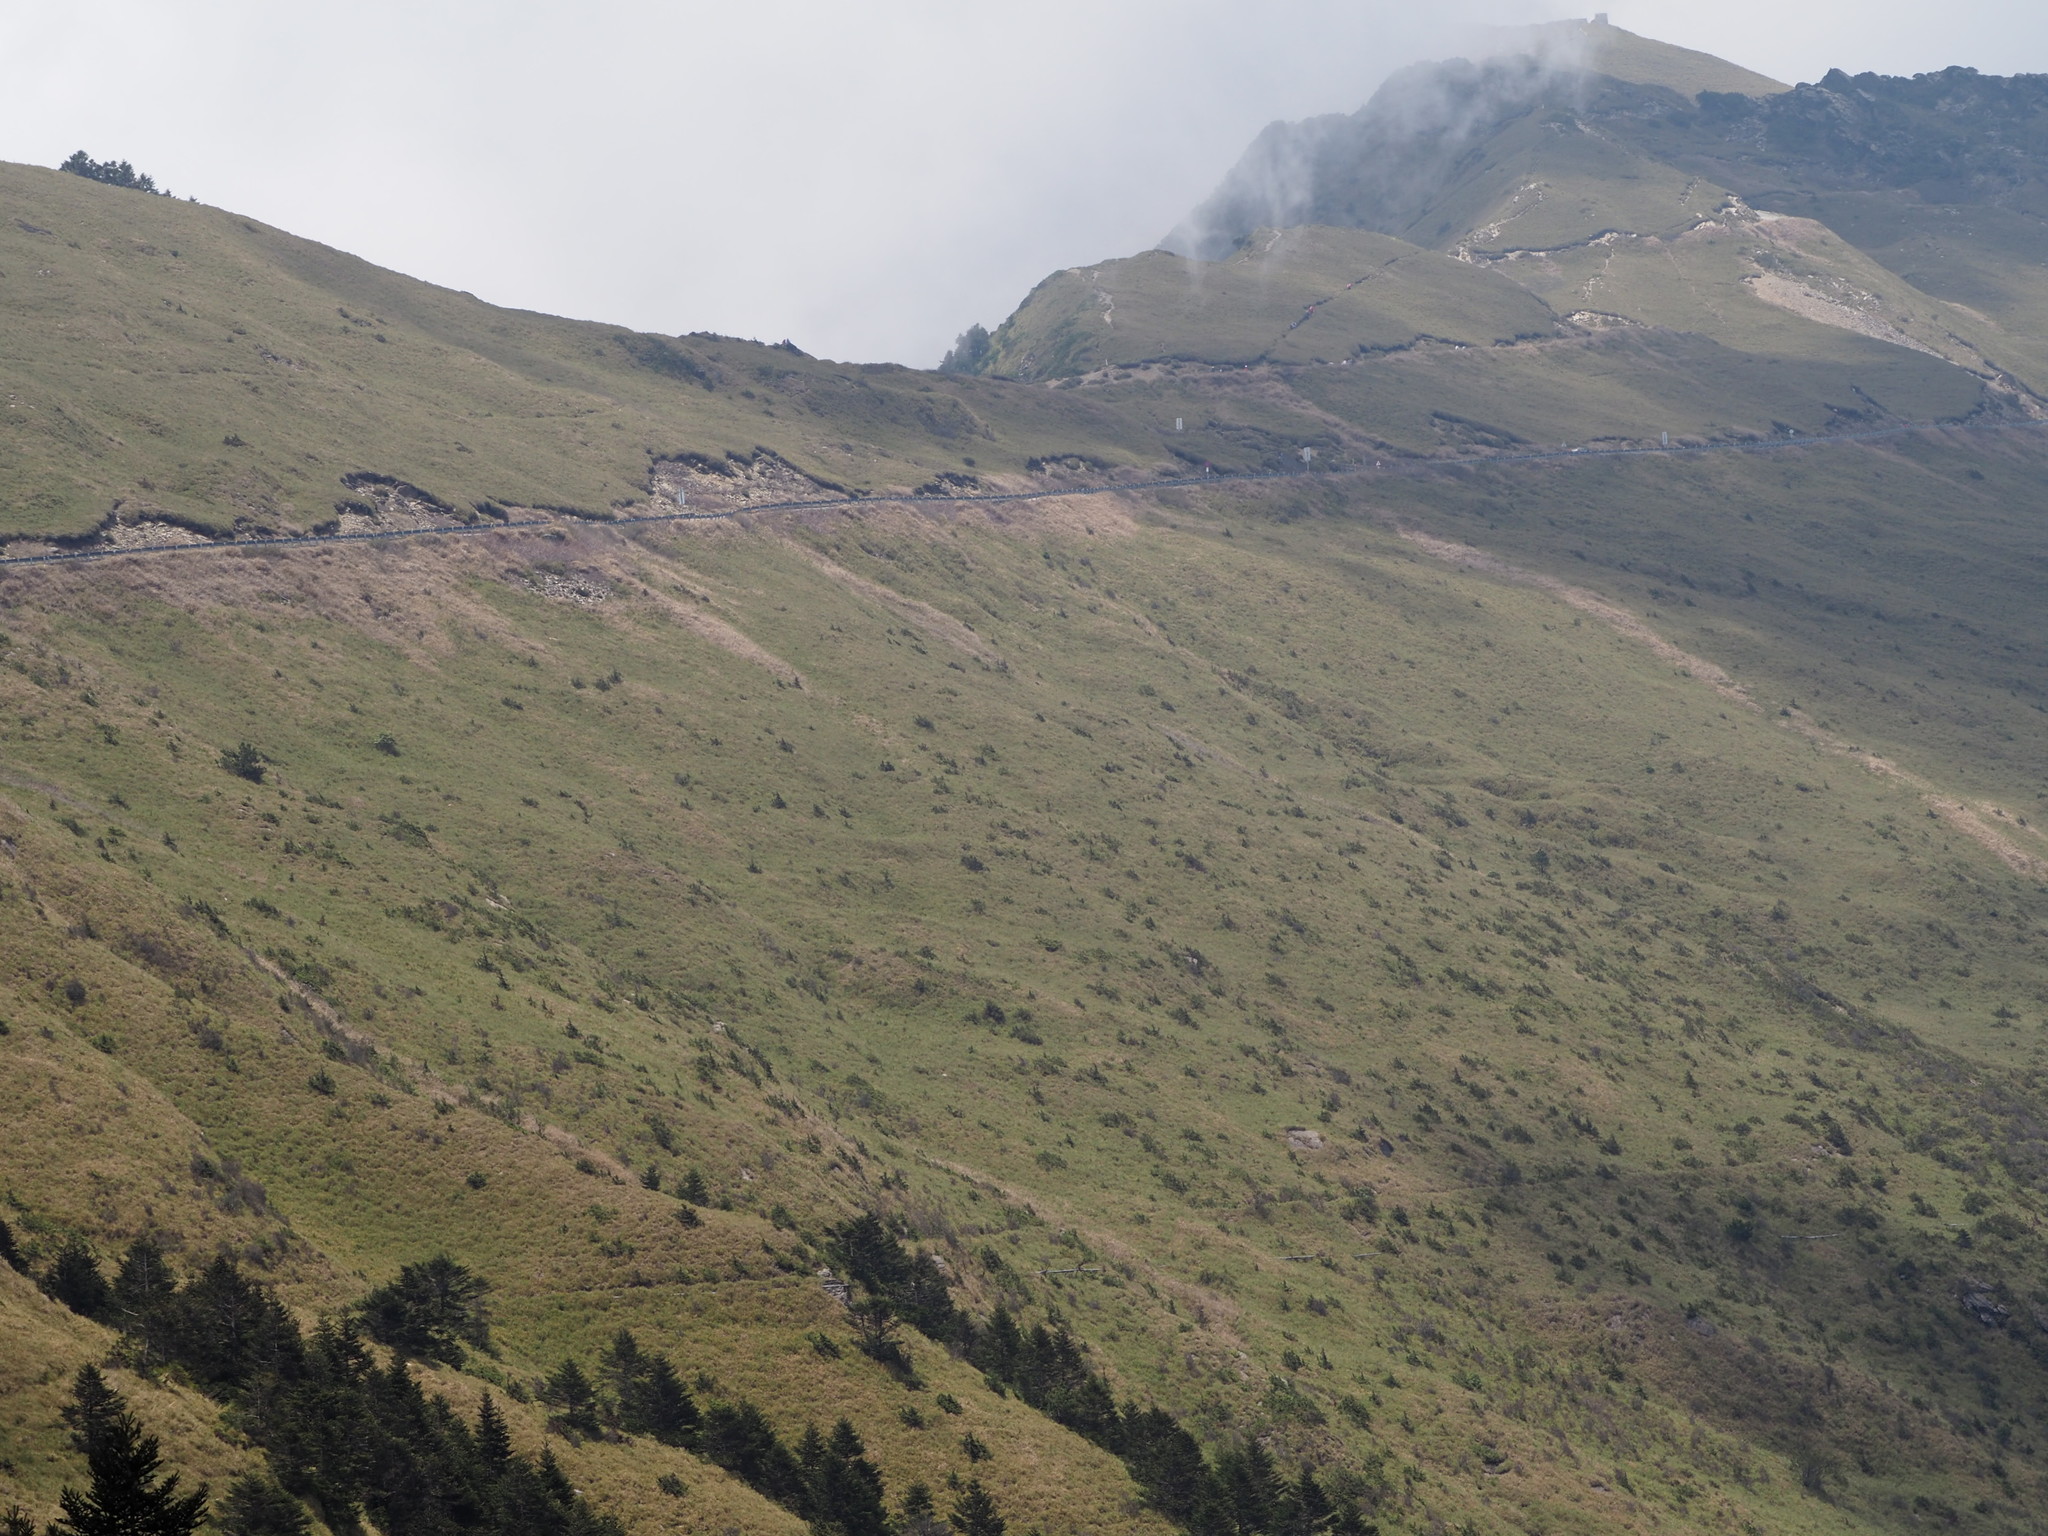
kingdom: Plantae
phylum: Tracheophyta
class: Liliopsida
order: Poales
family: Poaceae
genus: Yushania
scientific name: Yushania niitakayamensis
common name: Yushan cane
